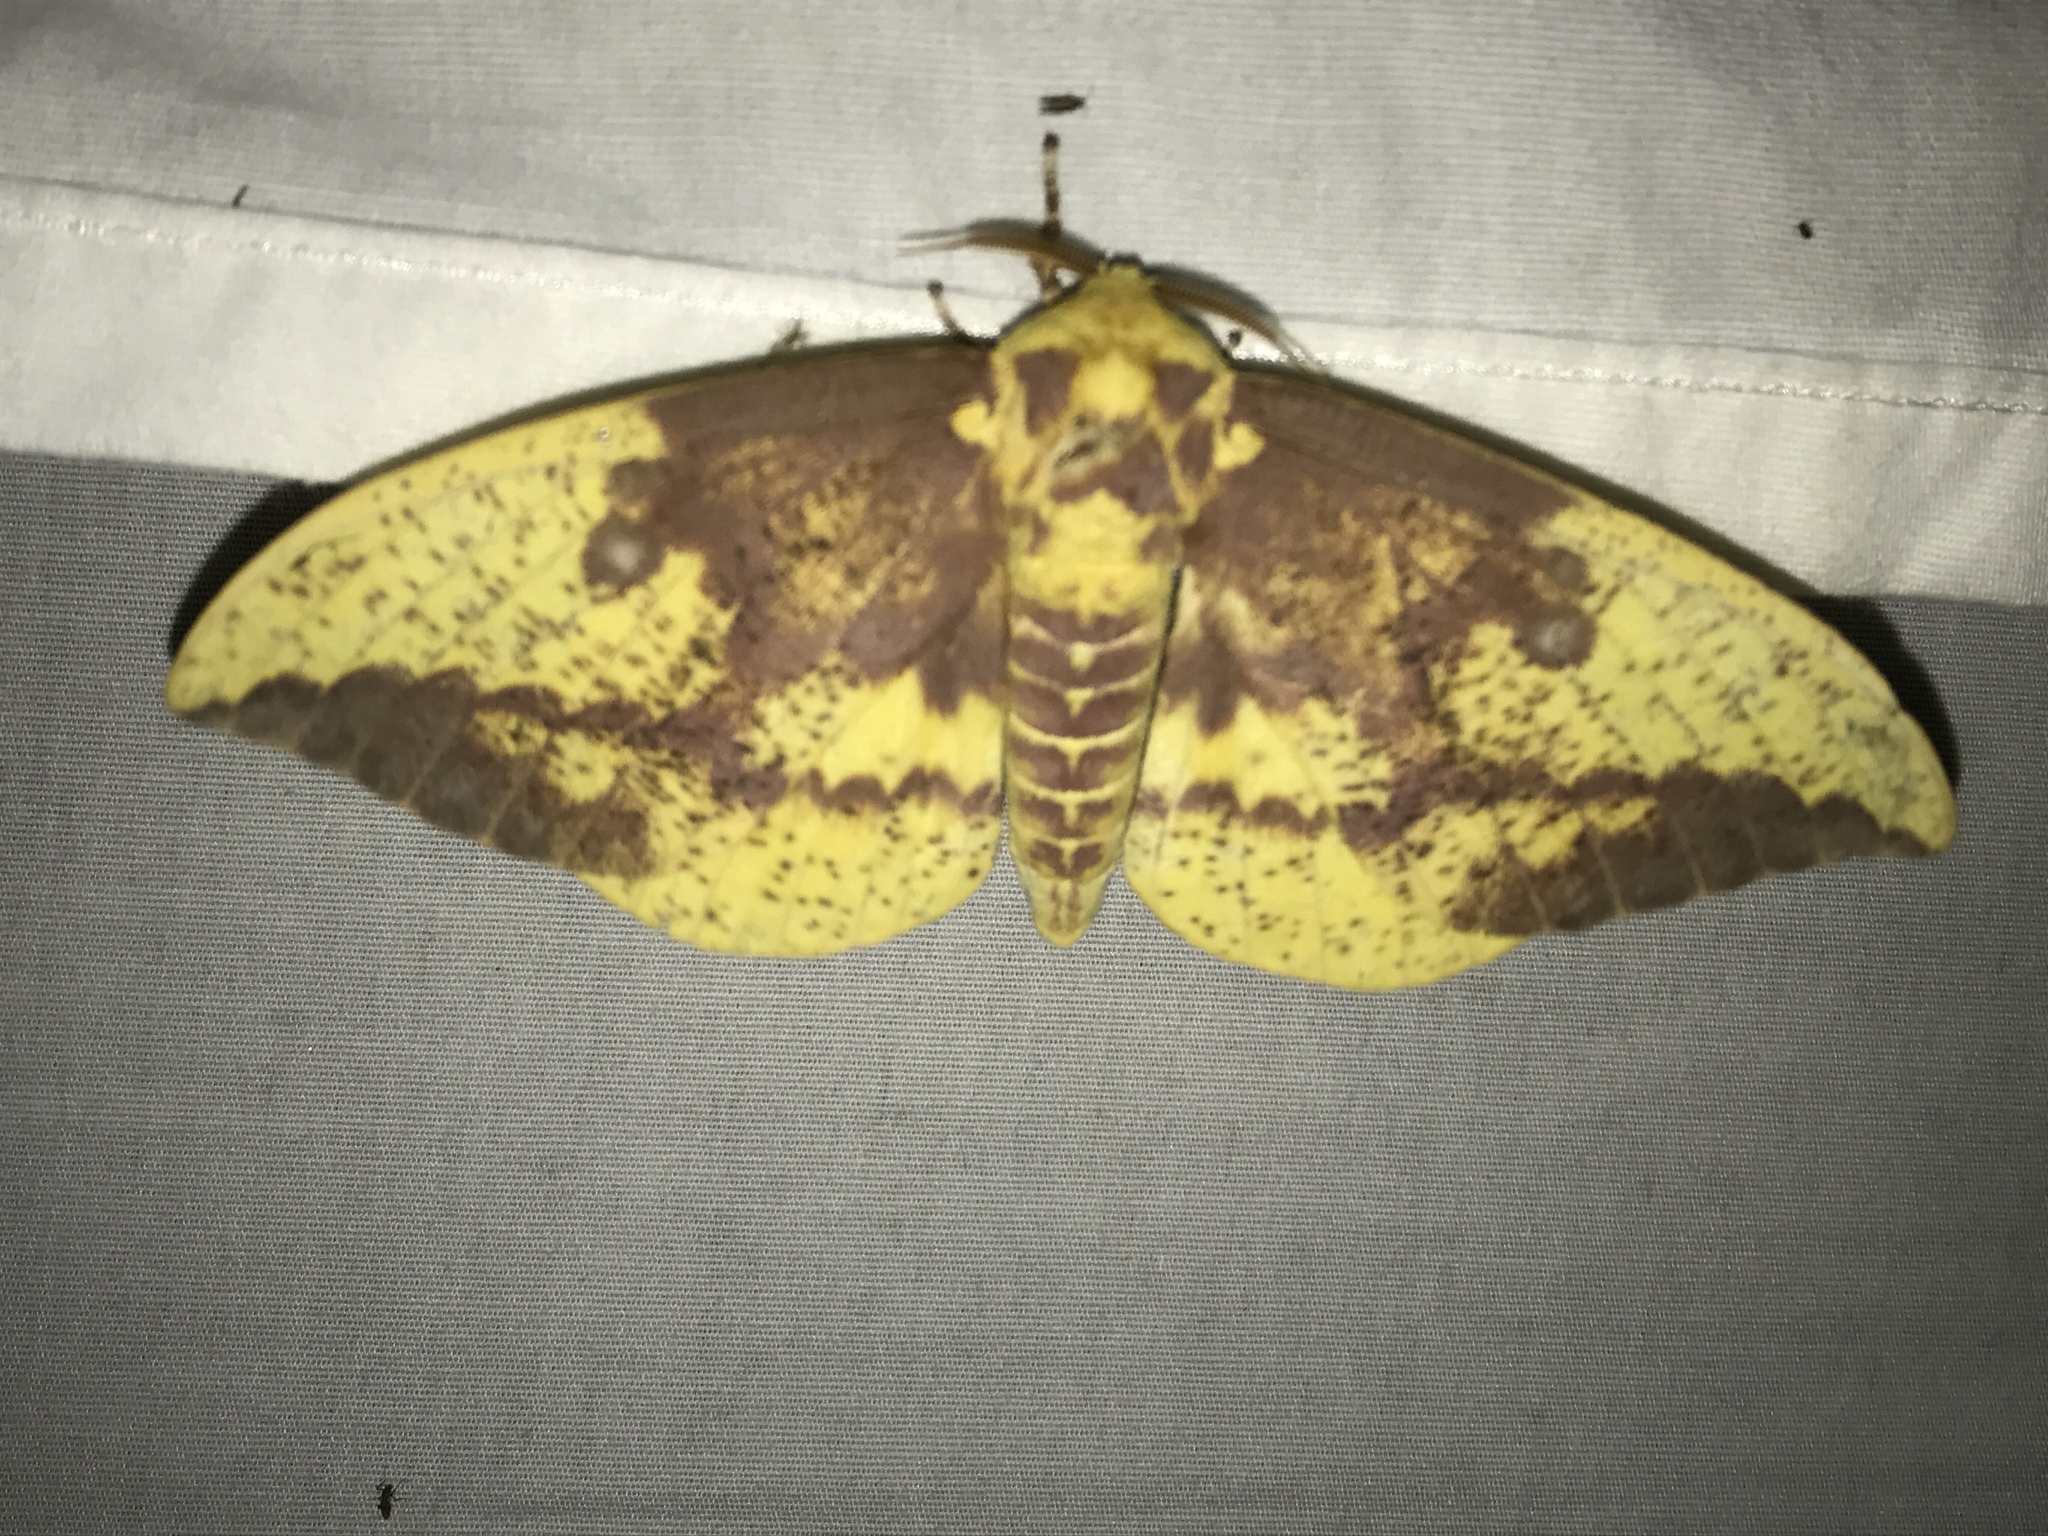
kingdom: Animalia
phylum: Arthropoda
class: Insecta
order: Lepidoptera
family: Saturniidae
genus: Eacles
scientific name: Eacles imperialis
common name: Imperial moth
